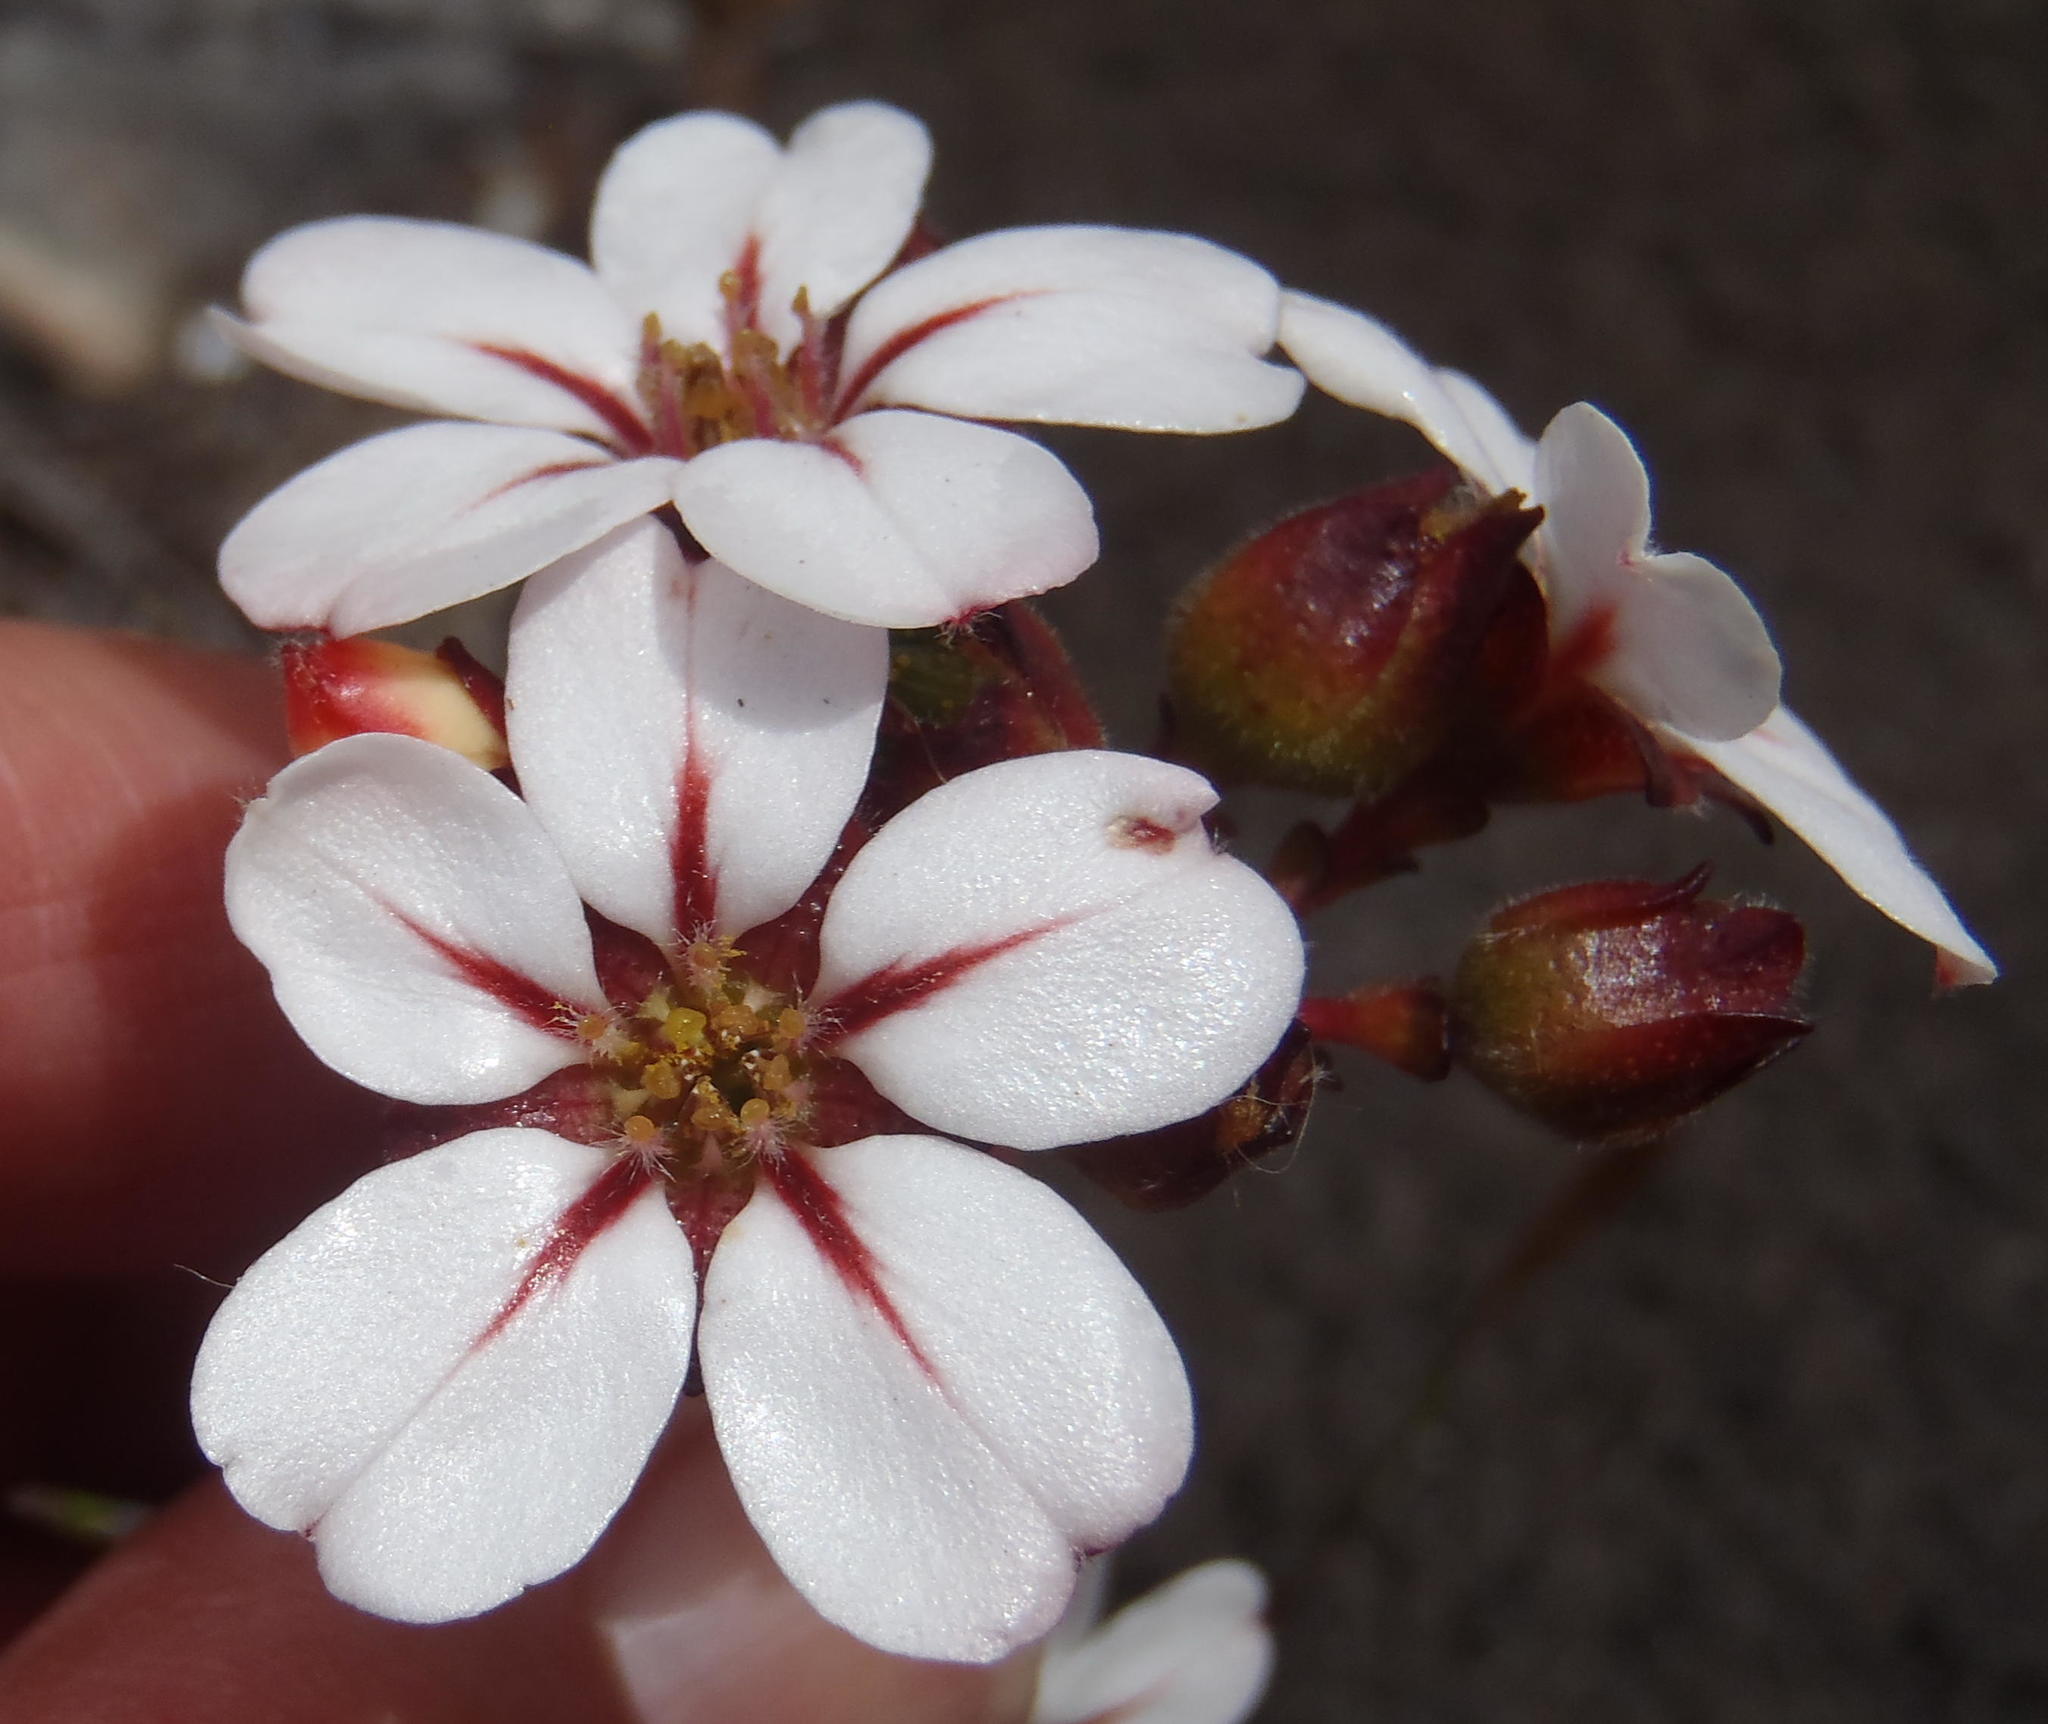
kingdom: Plantae
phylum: Tracheophyta
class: Magnoliopsida
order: Sapindales
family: Rutaceae
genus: Adenandra
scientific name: Adenandra villosa
